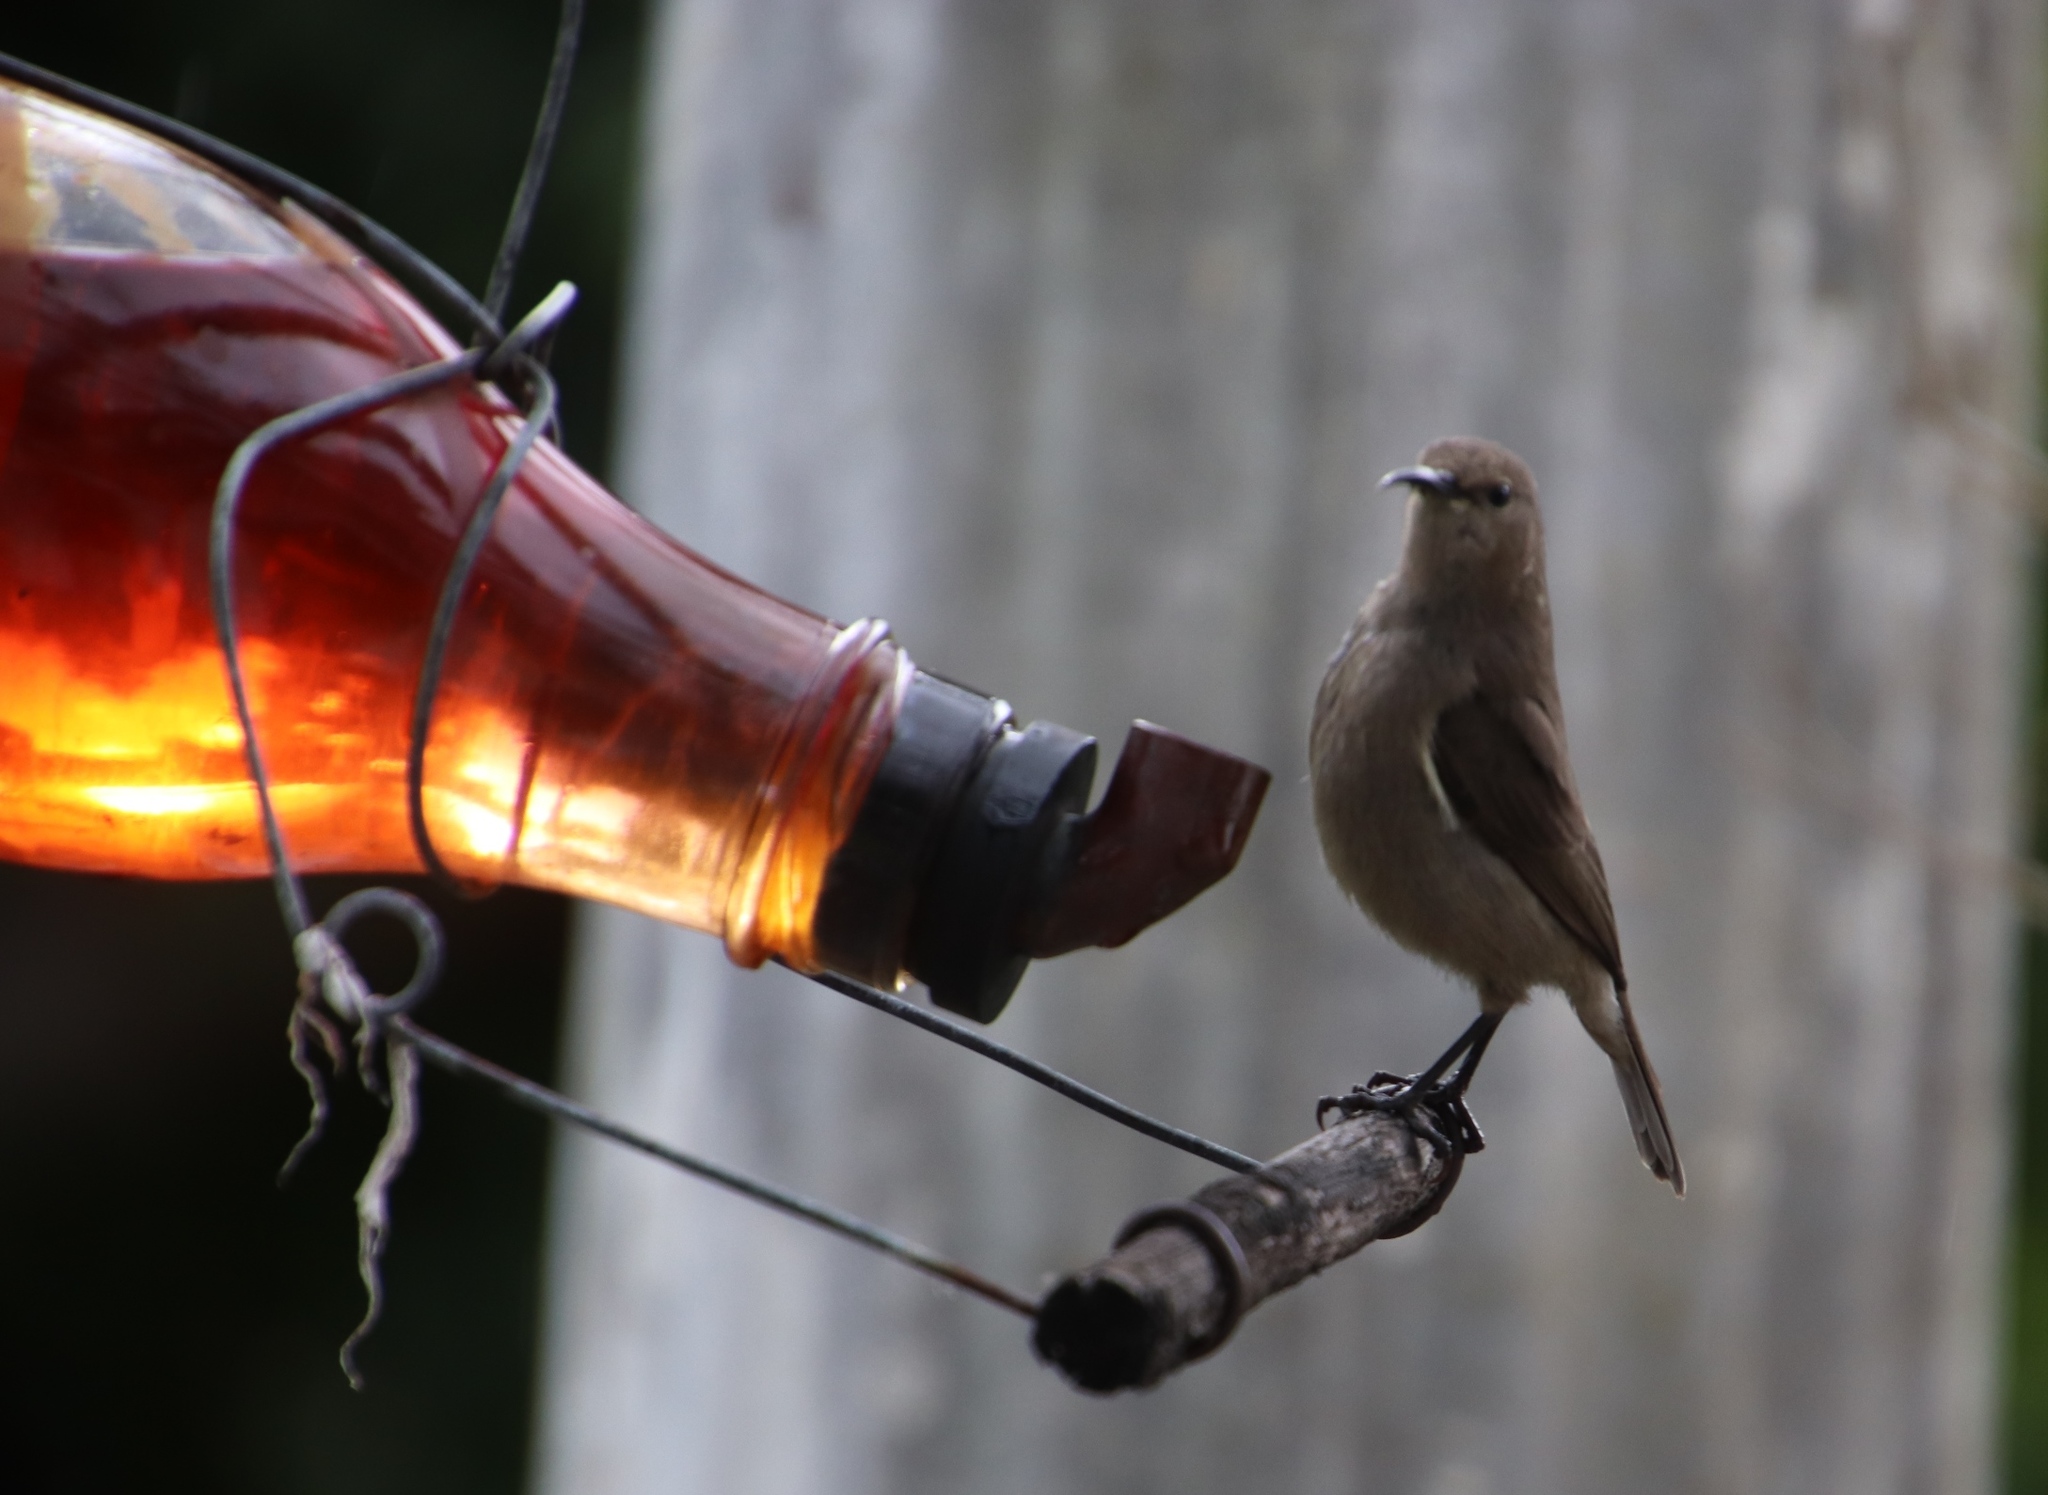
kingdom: Animalia
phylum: Chordata
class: Aves
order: Passeriformes
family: Nectariniidae
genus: Cinnyris
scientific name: Cinnyris chalybeus
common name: Southern double-collared sunbird
